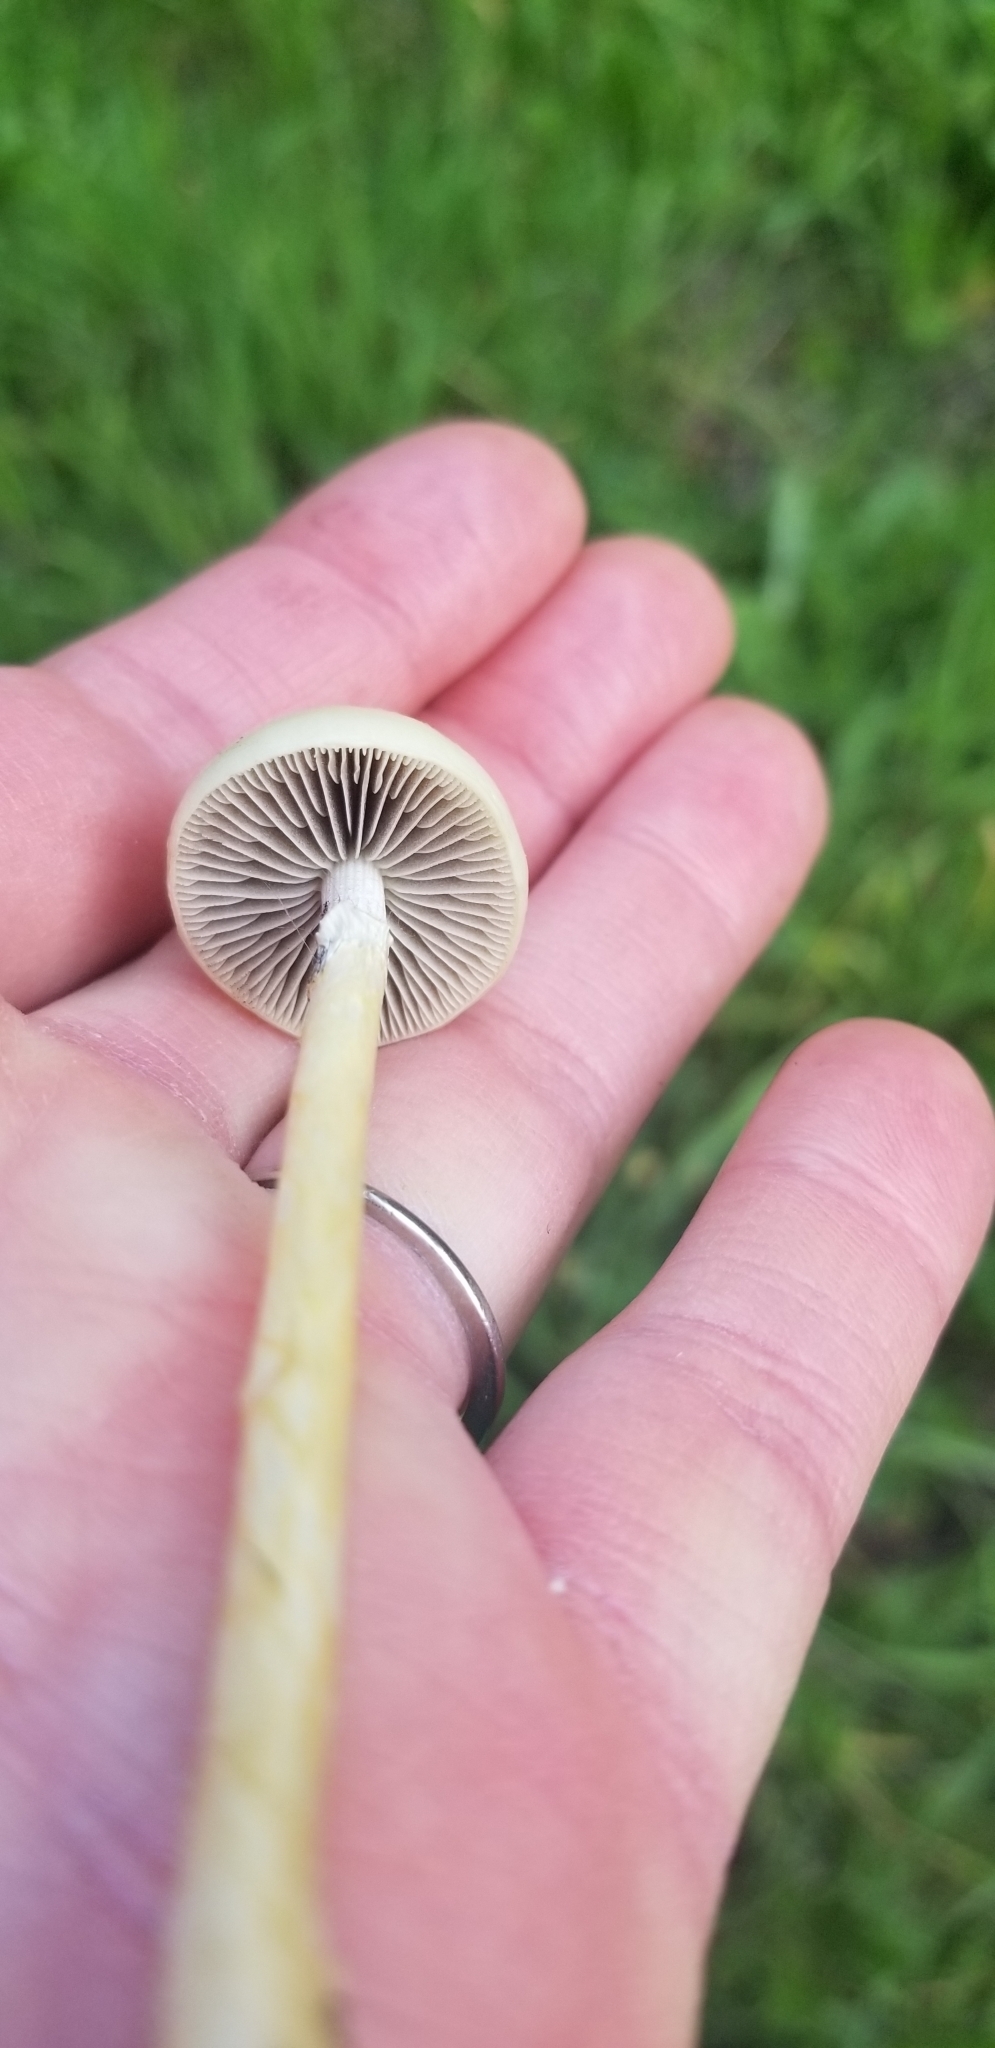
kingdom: Fungi
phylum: Basidiomycota
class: Agaricomycetes
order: Agaricales
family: Strophariaceae
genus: Protostropharia
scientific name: Protostropharia dorsipora
